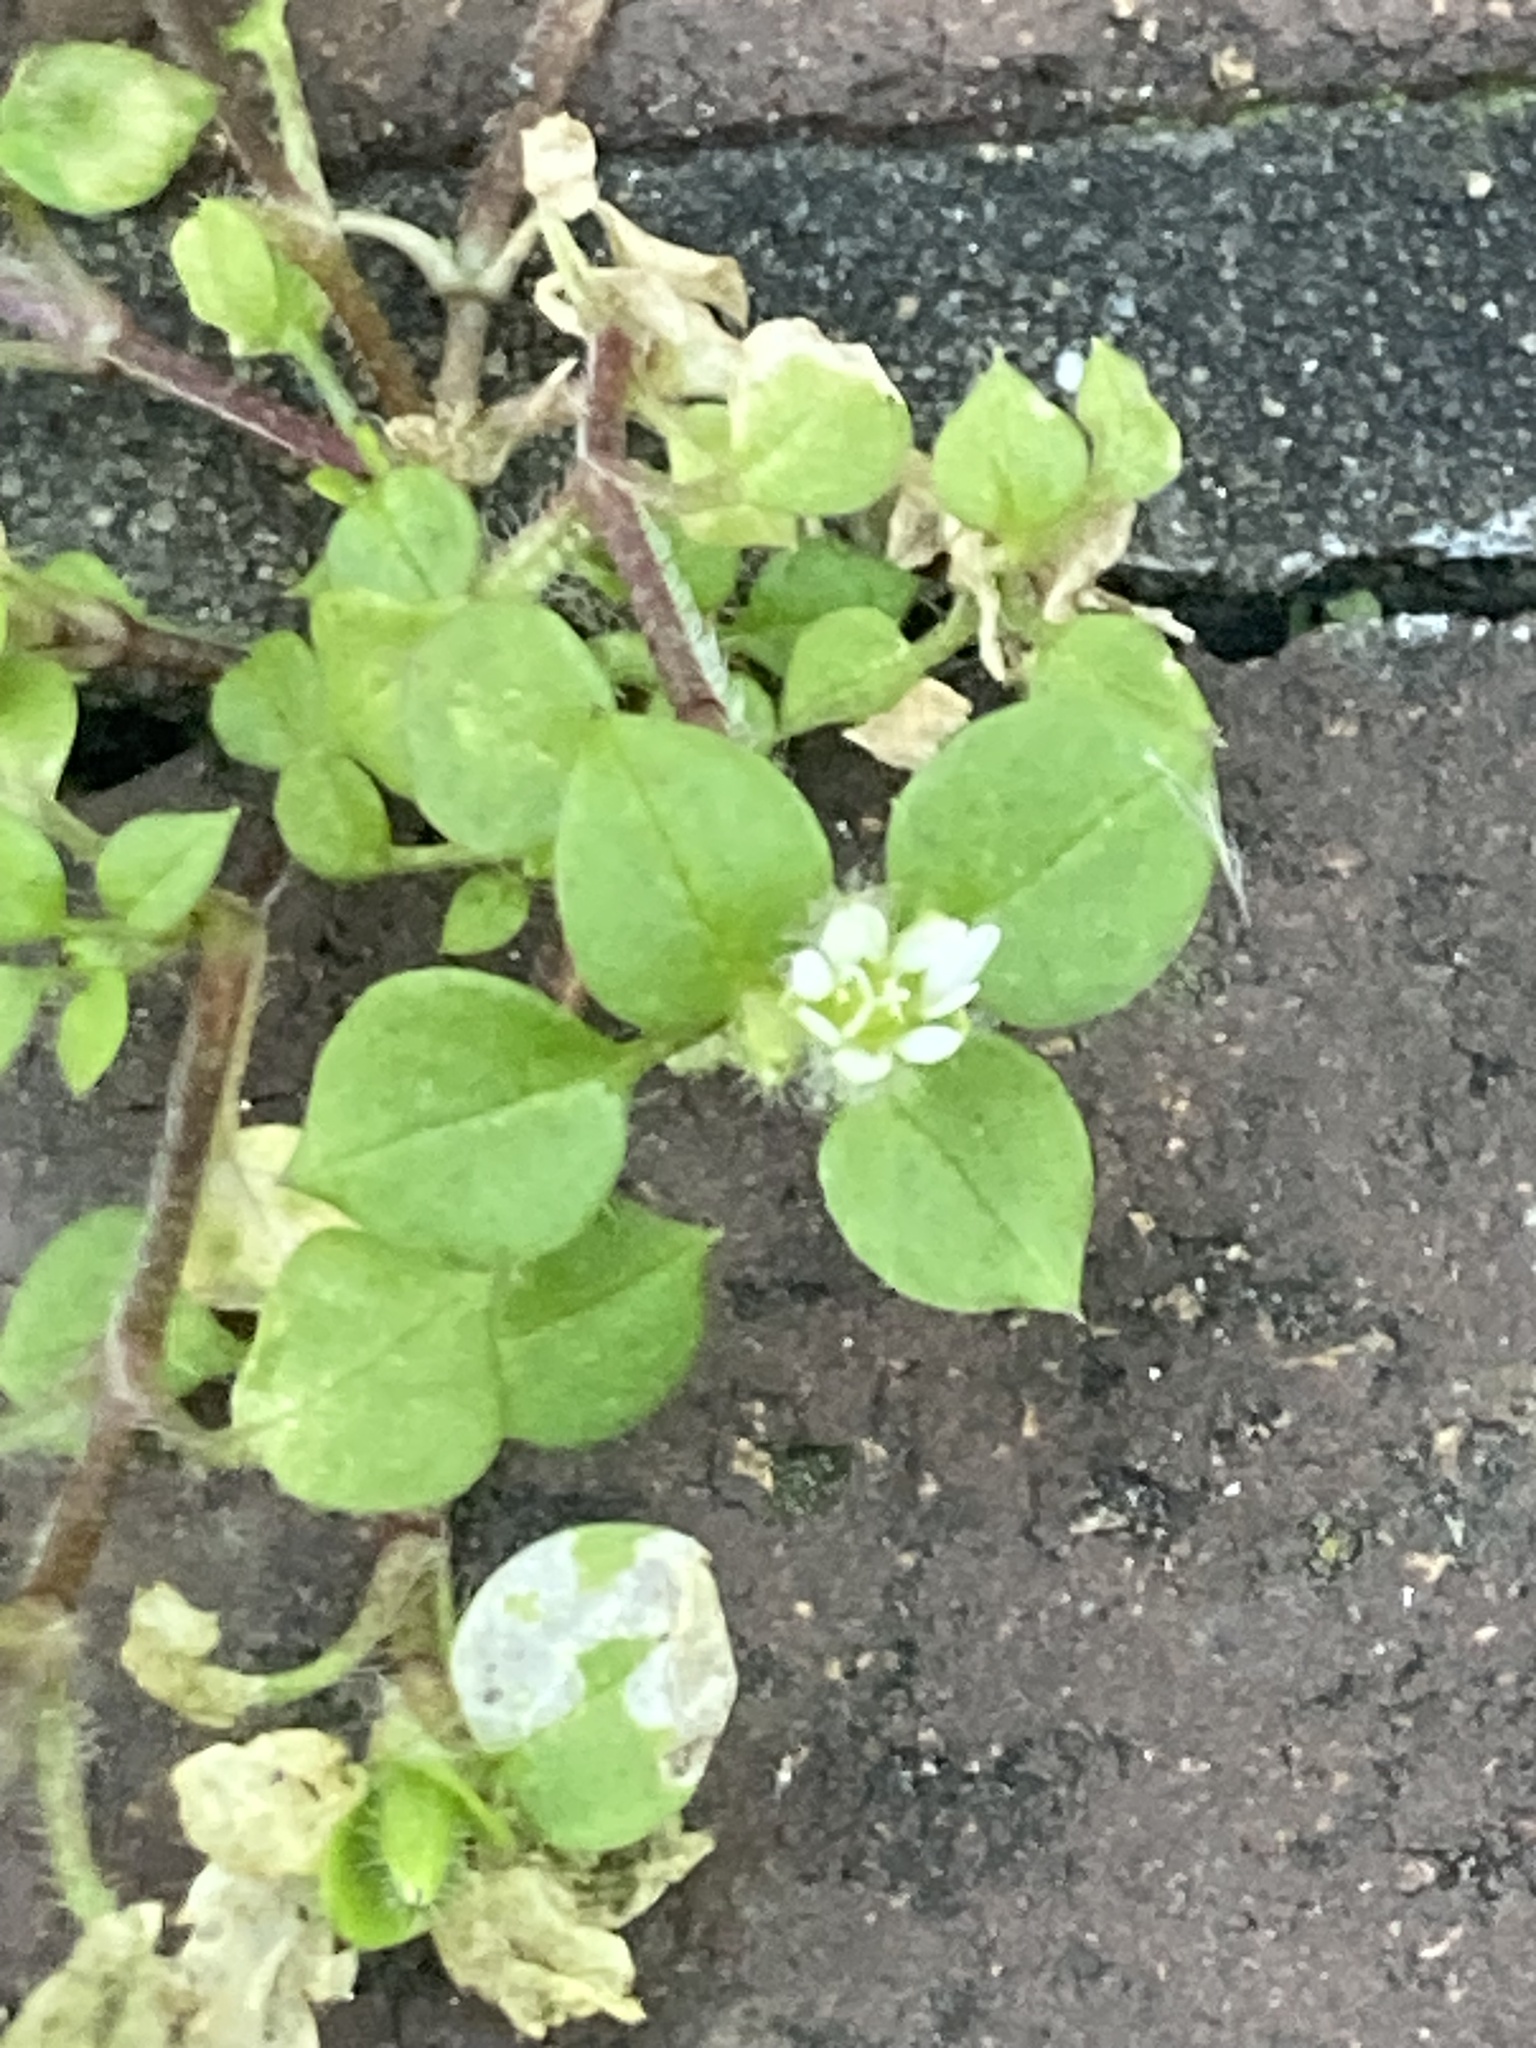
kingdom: Plantae
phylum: Tracheophyta
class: Magnoliopsida
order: Caryophyllales
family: Caryophyllaceae
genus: Stellaria
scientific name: Stellaria media
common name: Common chickweed
